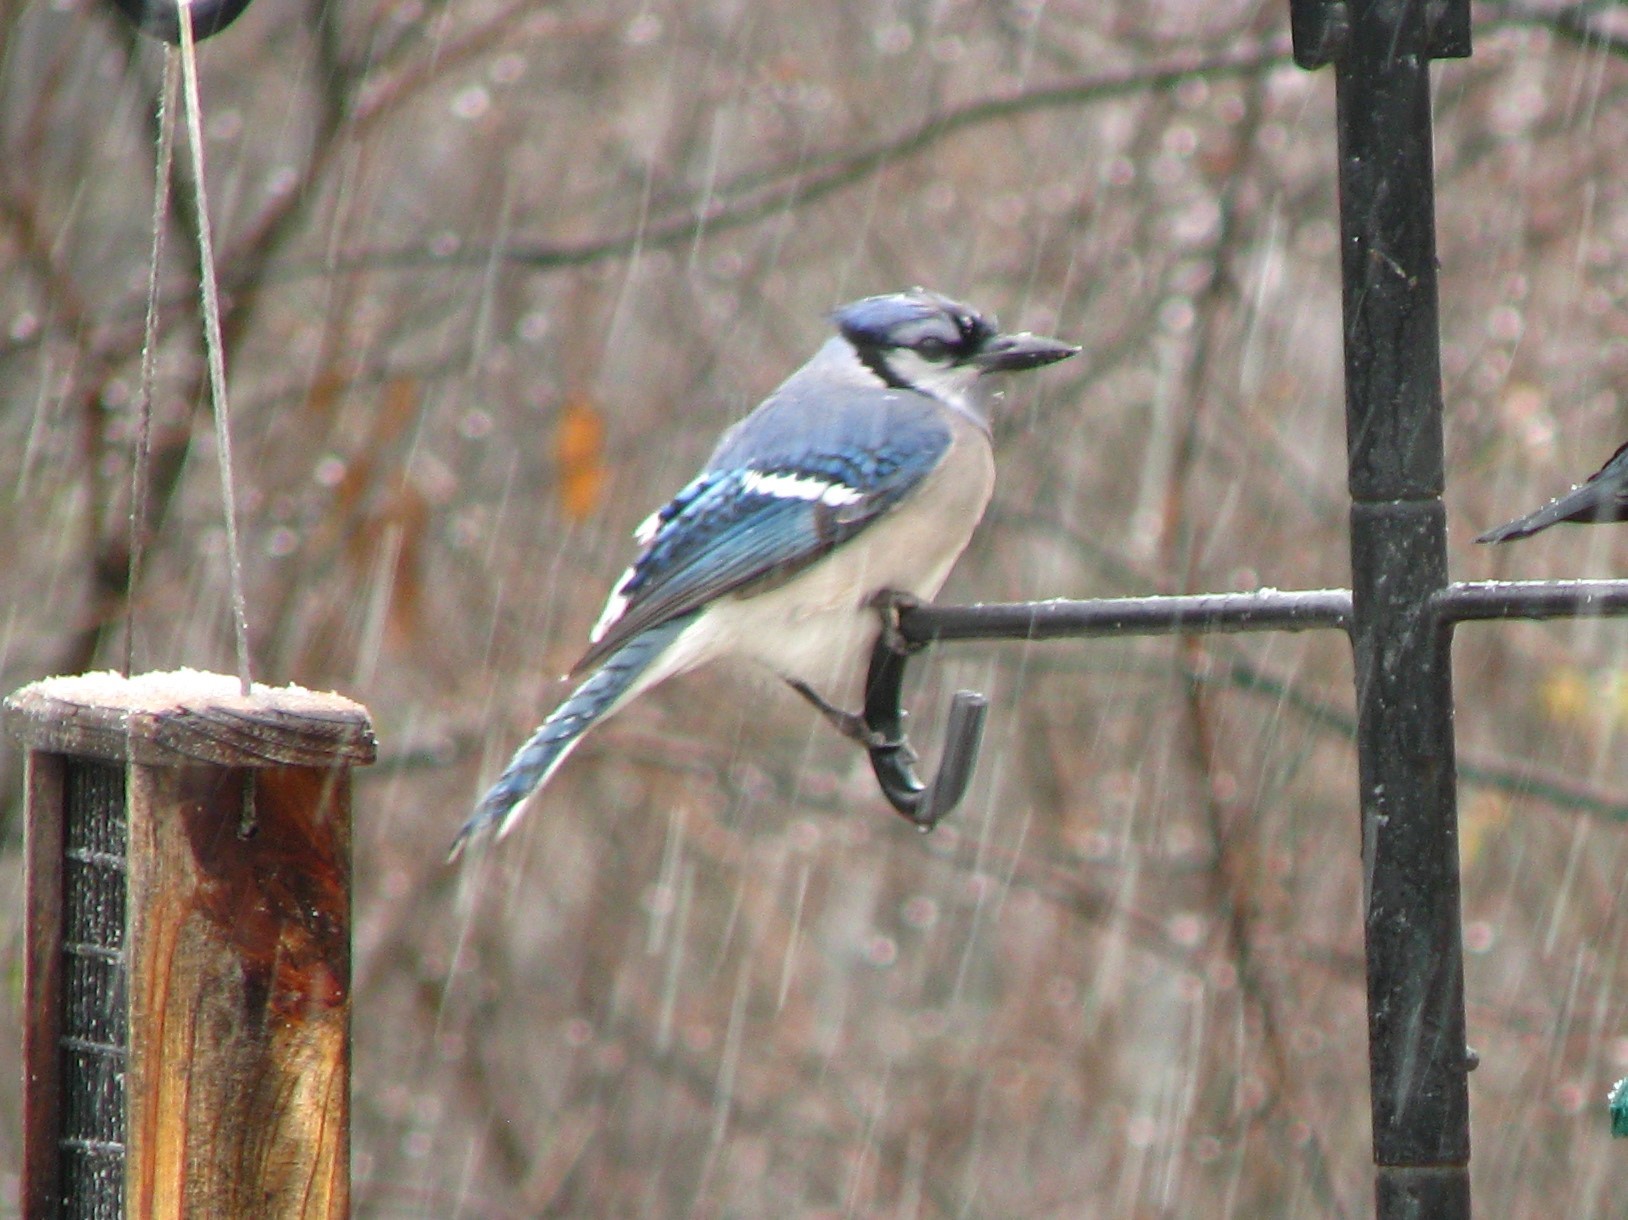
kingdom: Animalia
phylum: Chordata
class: Aves
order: Passeriformes
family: Corvidae
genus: Cyanocitta
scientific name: Cyanocitta cristata
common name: Blue jay
